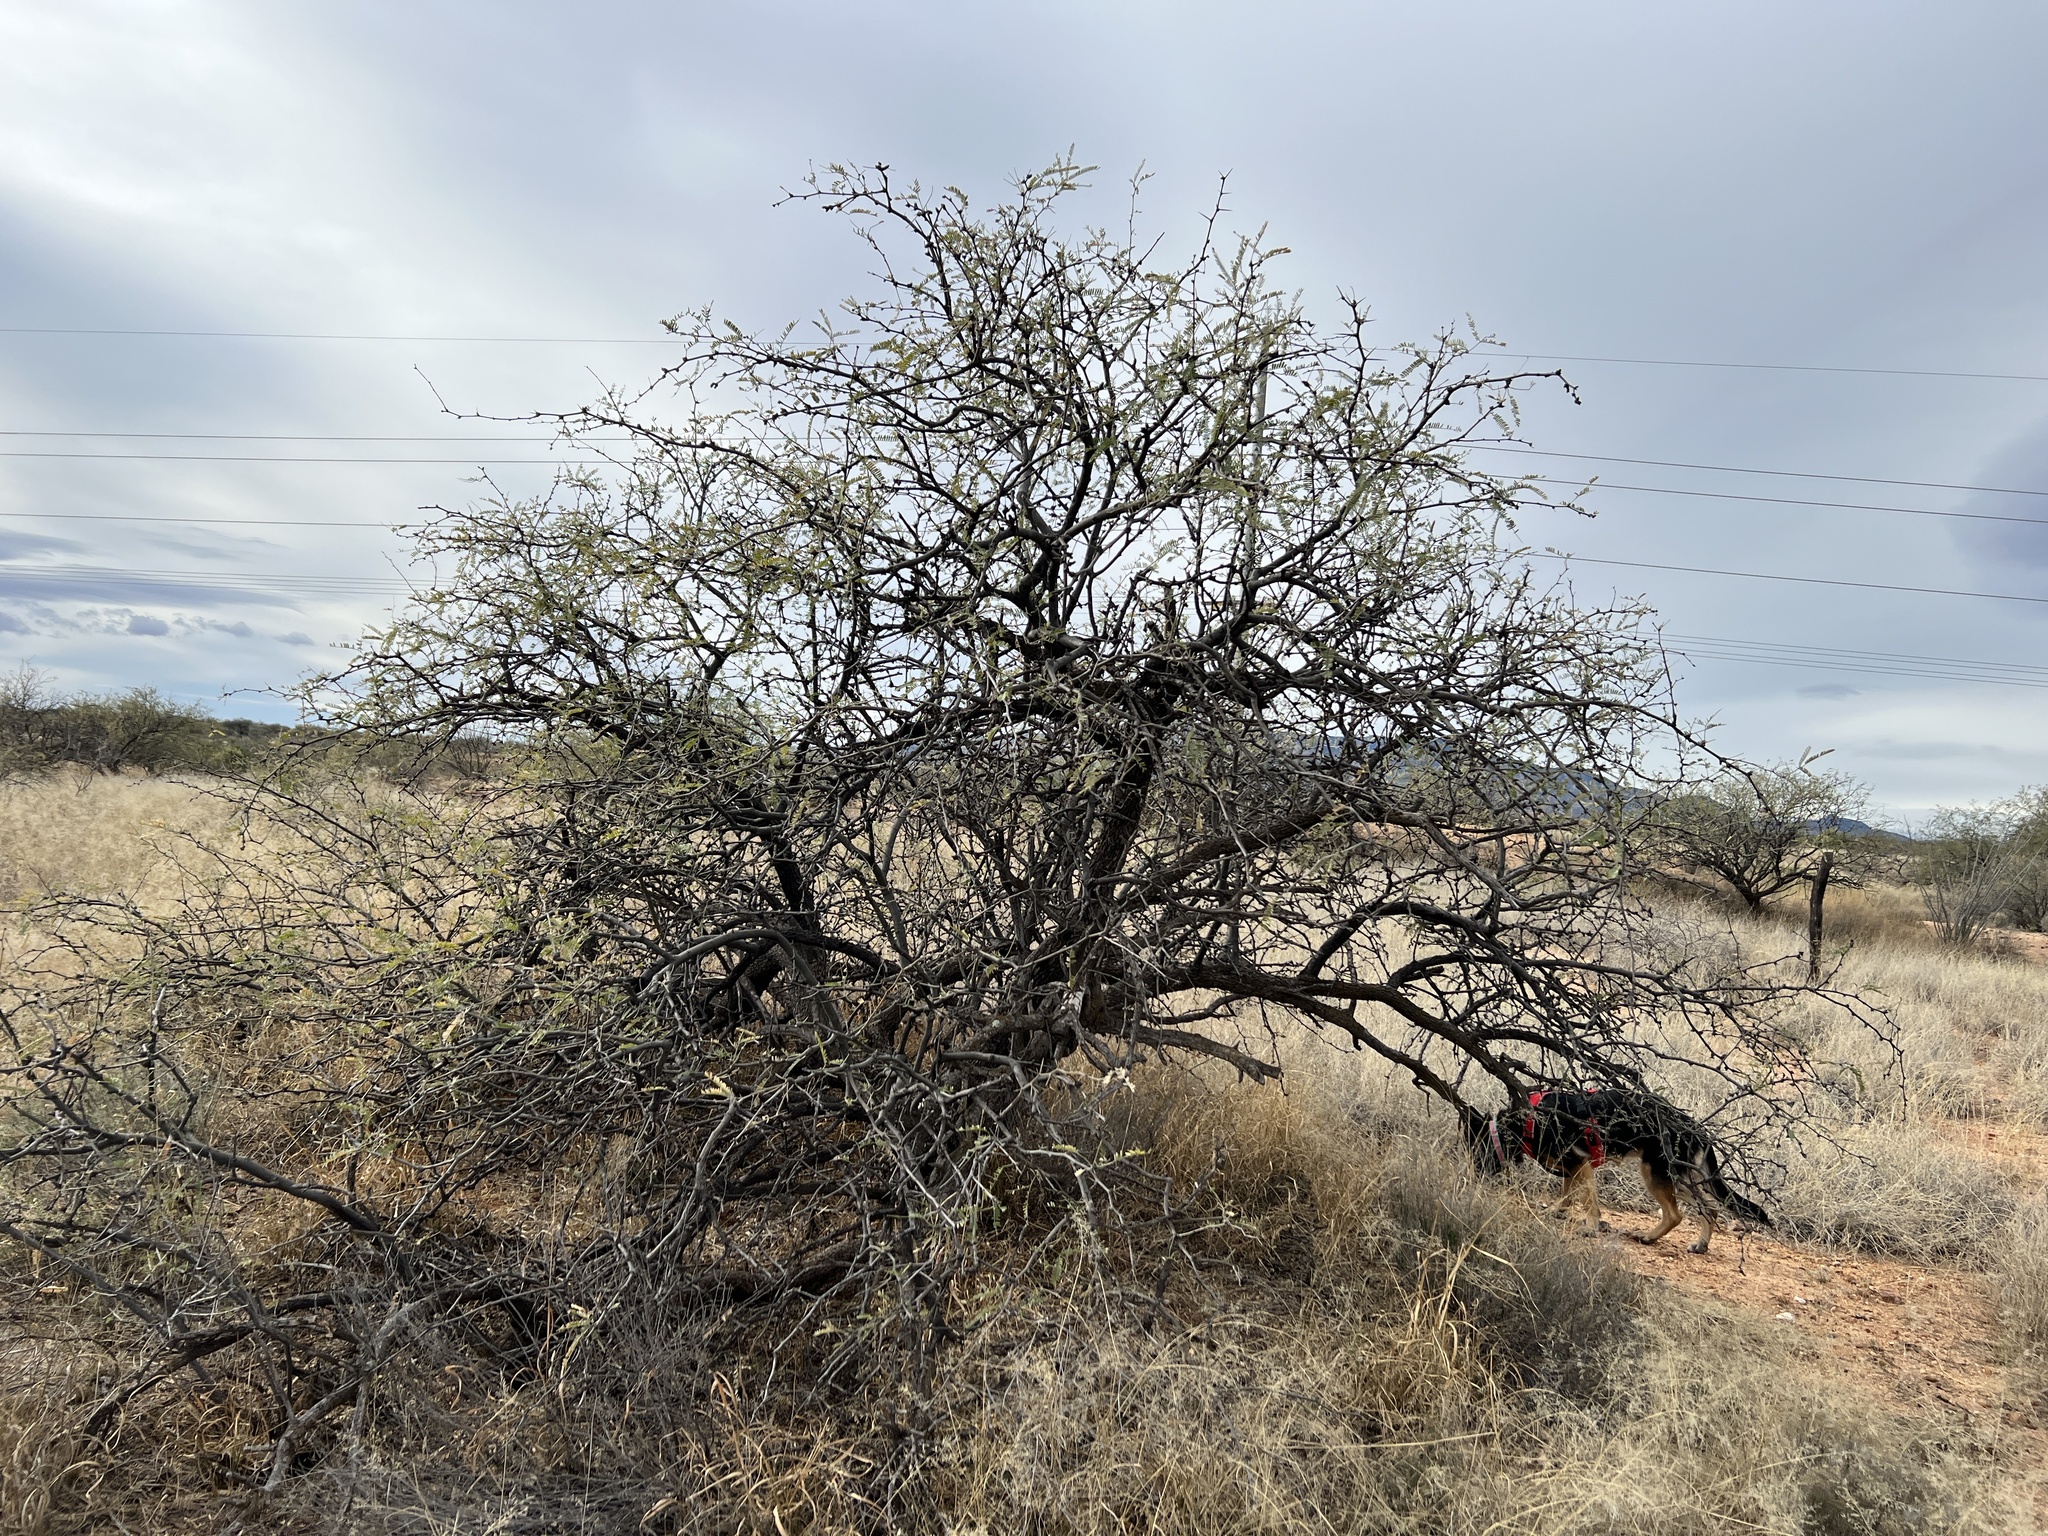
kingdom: Plantae
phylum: Tracheophyta
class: Magnoliopsida
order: Fabales
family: Fabaceae
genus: Prosopis
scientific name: Prosopis velutina
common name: Velvet mesquite
